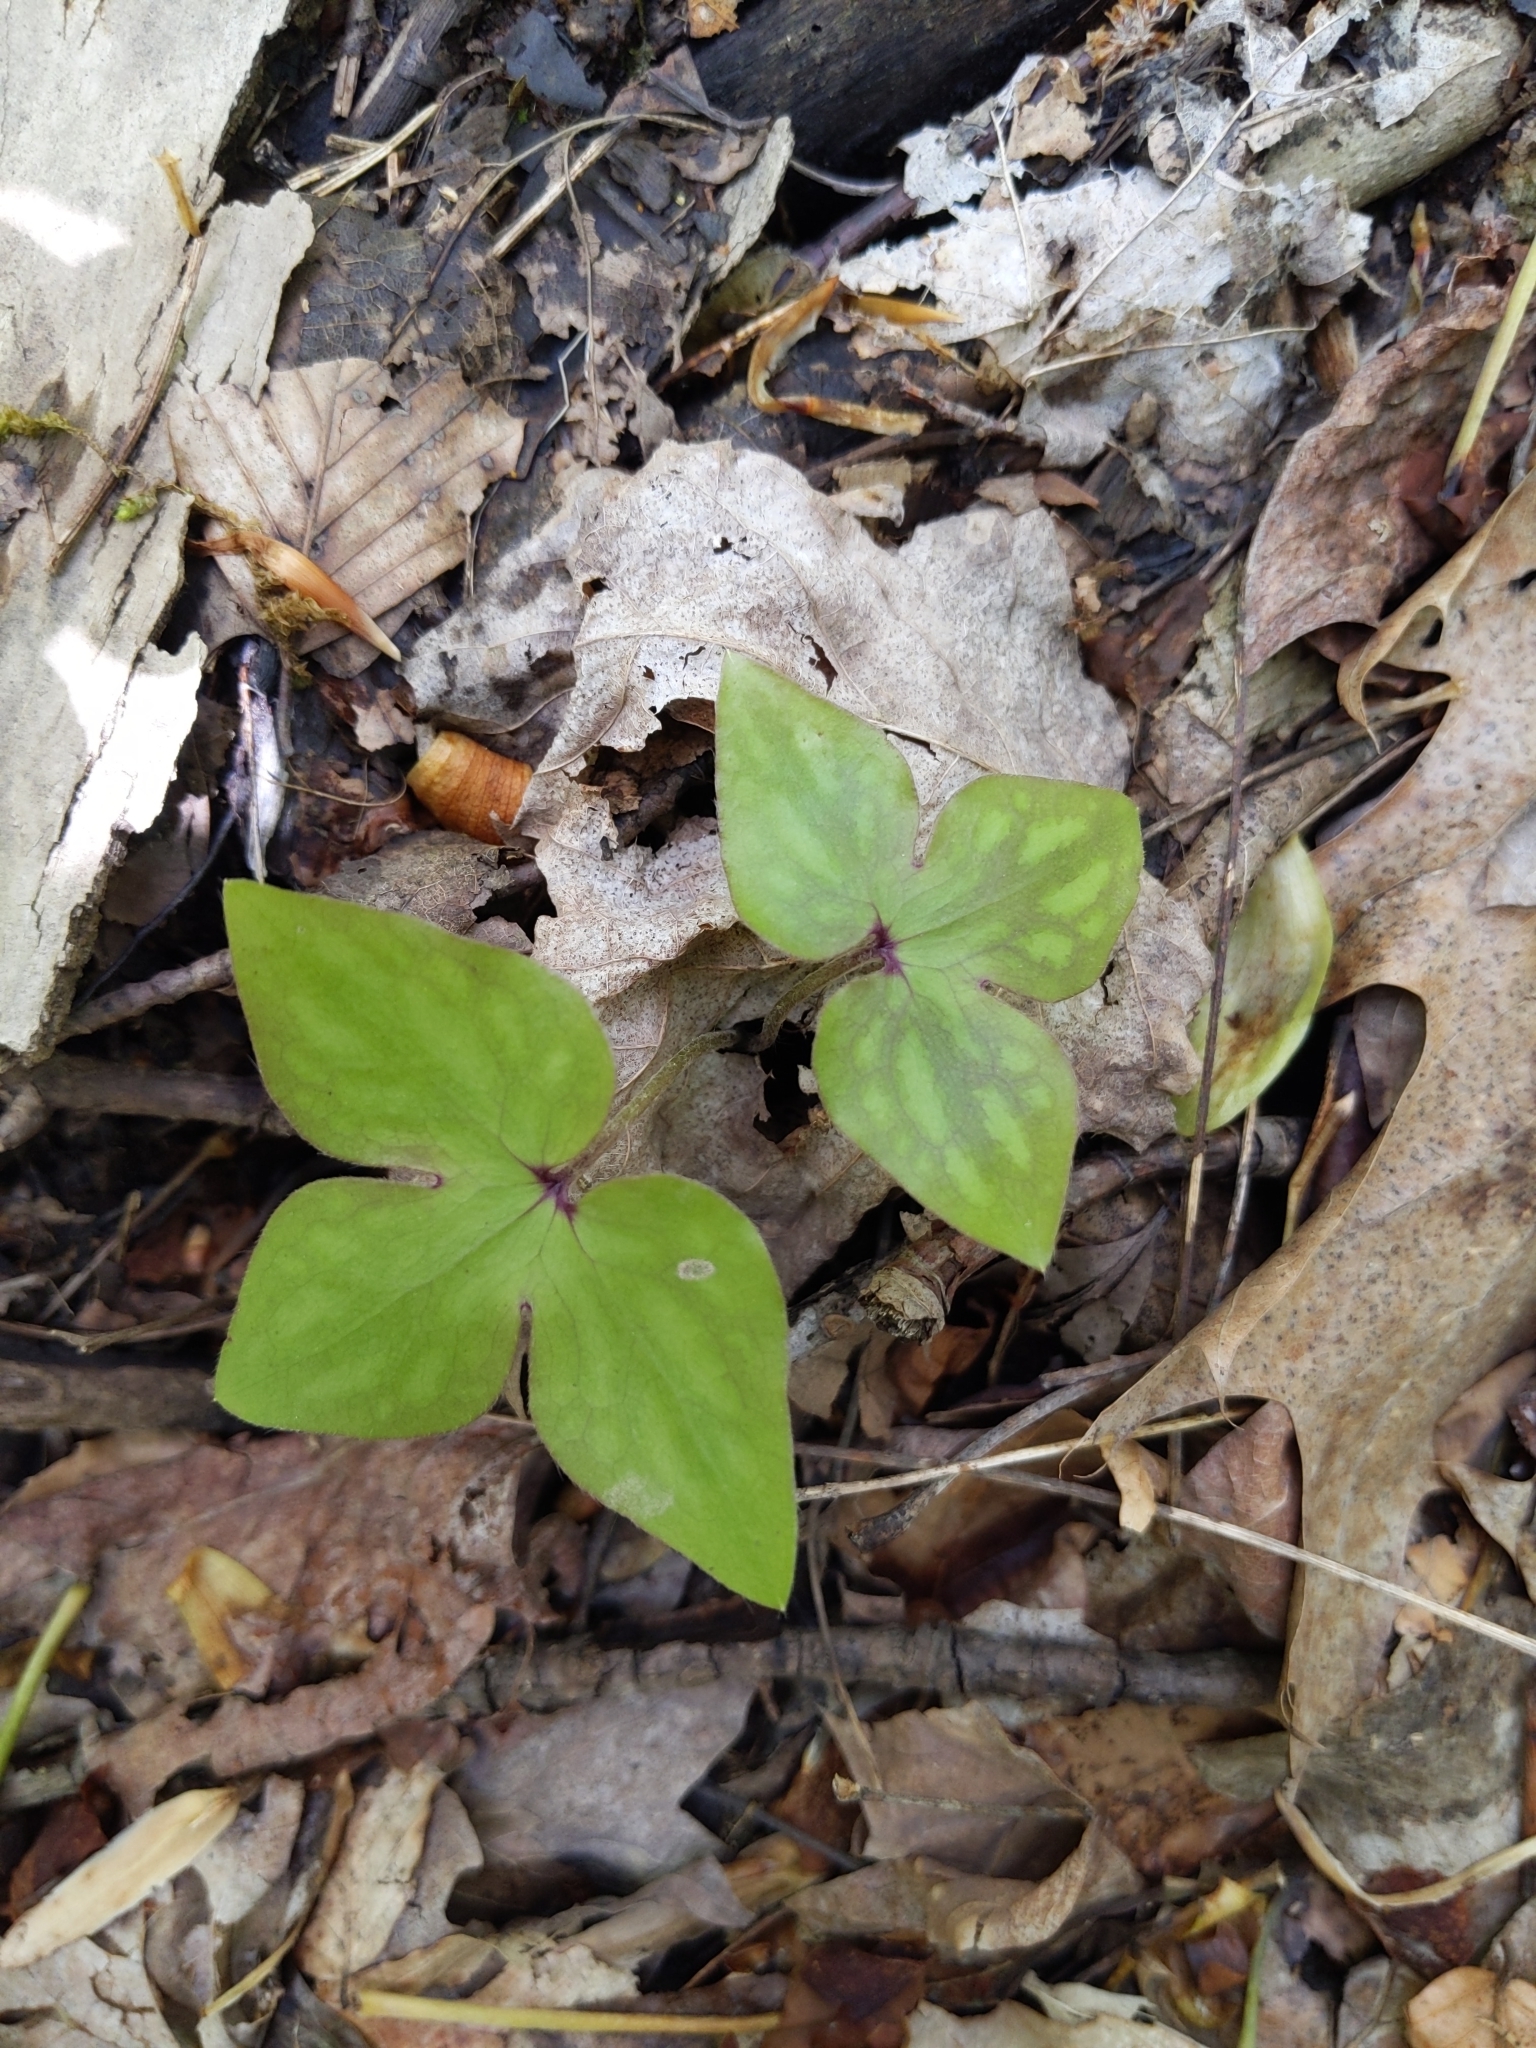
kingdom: Plantae
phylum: Tracheophyta
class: Magnoliopsida
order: Ranunculales
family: Ranunculaceae
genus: Hepatica
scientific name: Hepatica acutiloba
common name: Sharp-lobed hepatica
